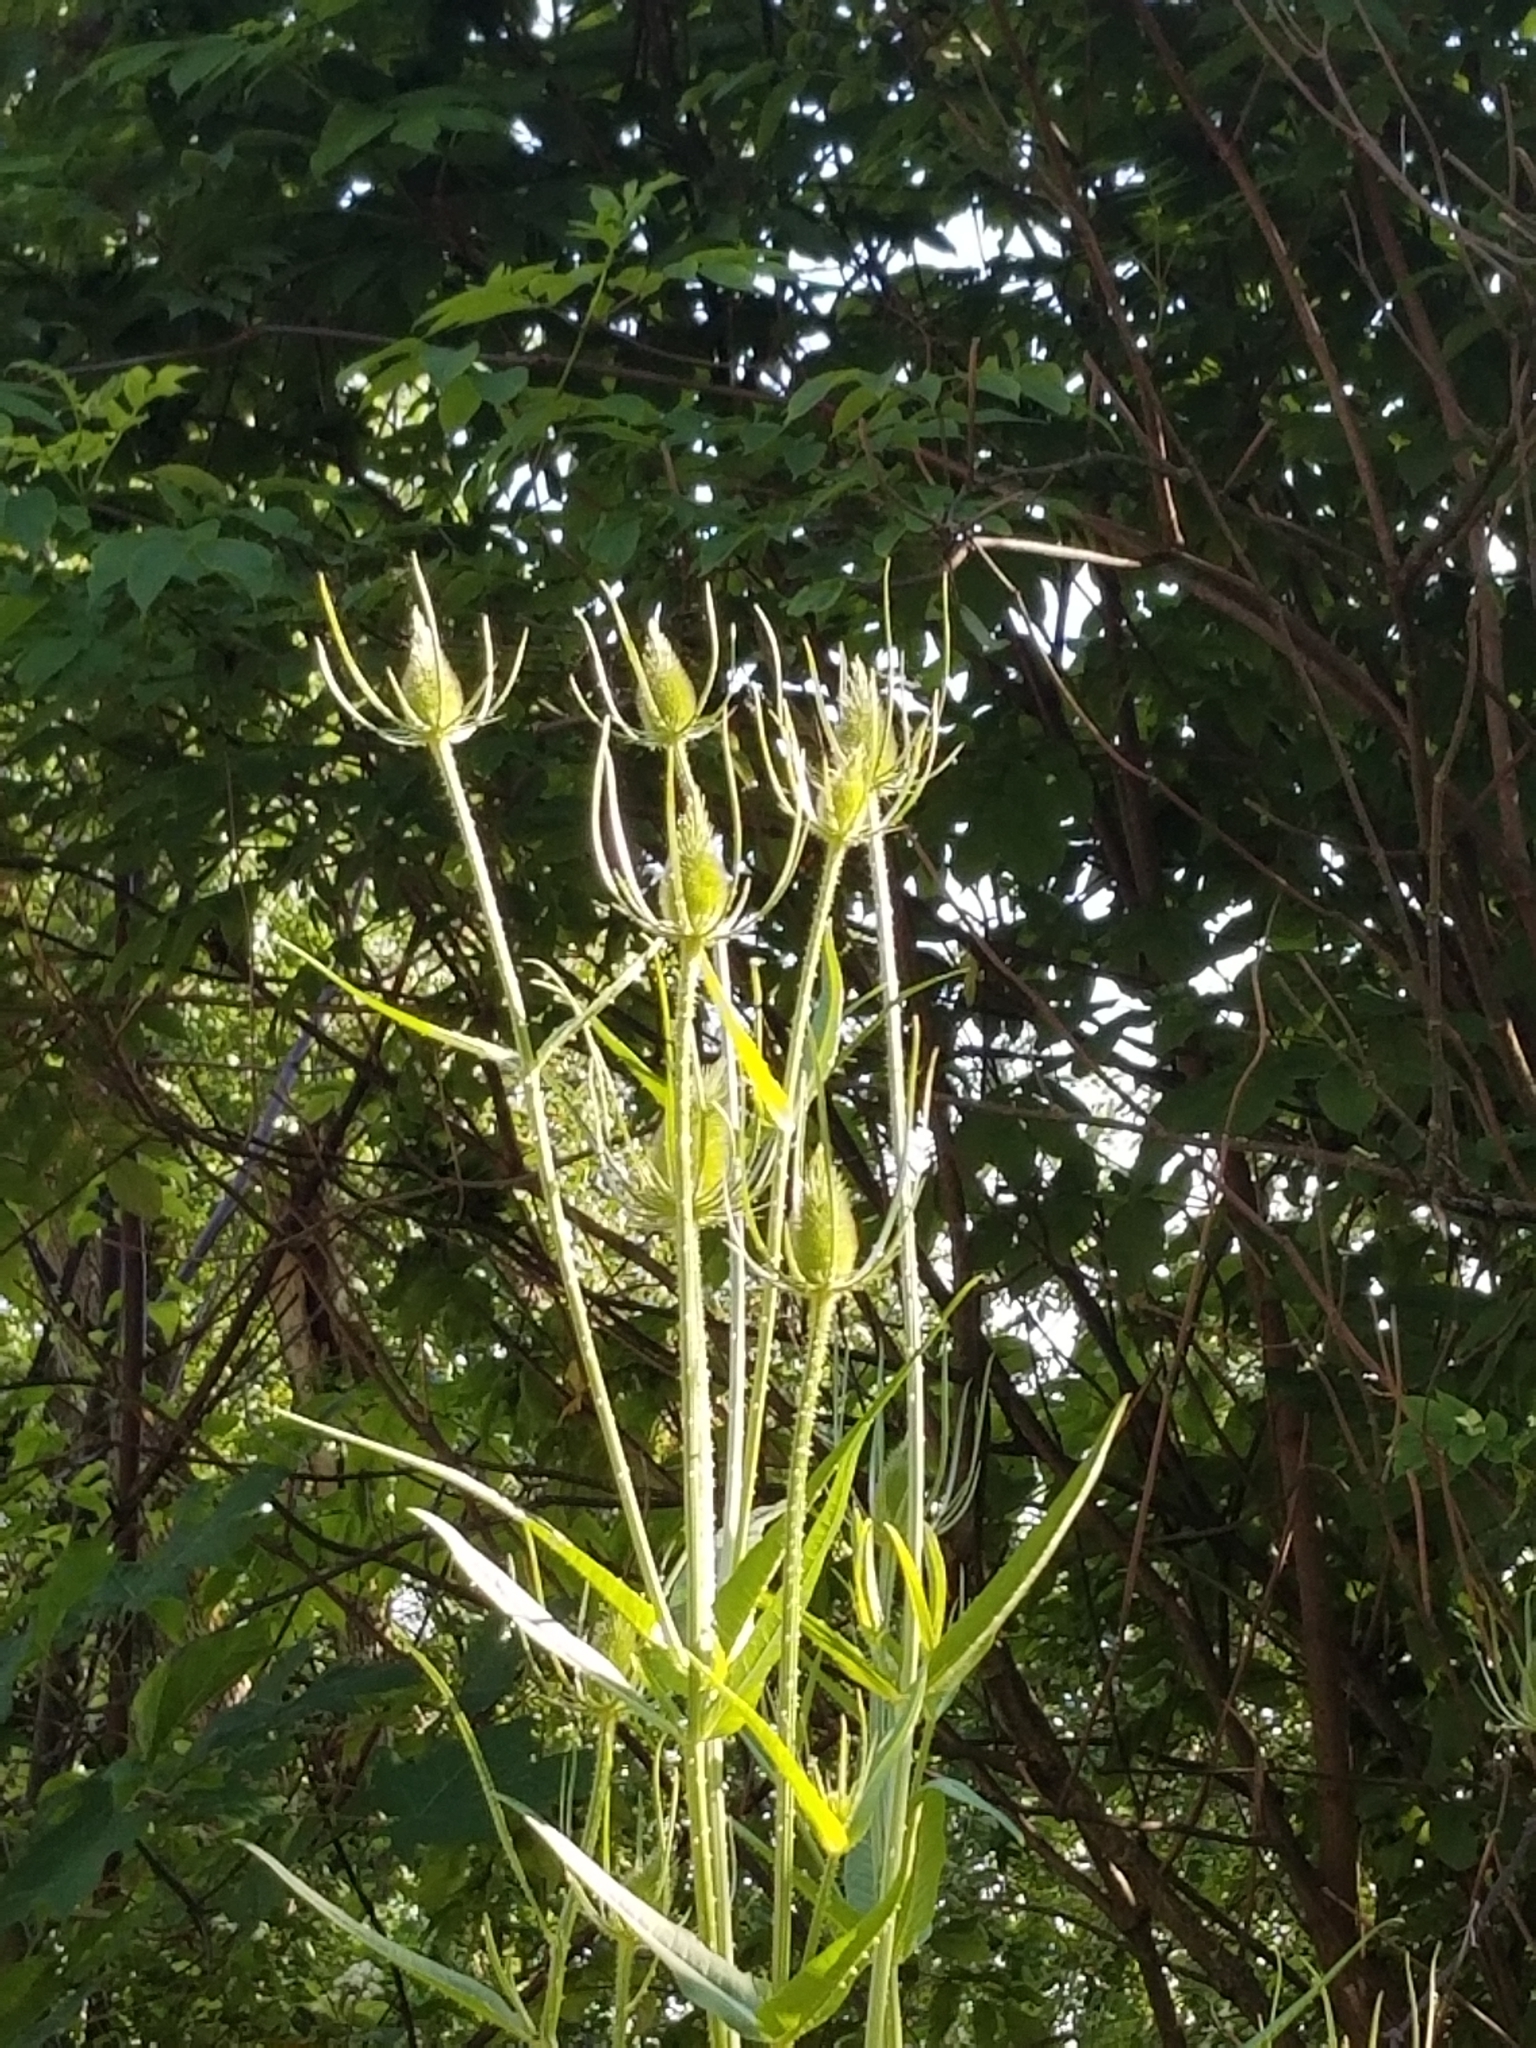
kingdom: Plantae
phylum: Tracheophyta
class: Magnoliopsida
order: Dipsacales
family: Caprifoliaceae
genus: Dipsacus
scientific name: Dipsacus fullonum
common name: Teasel
